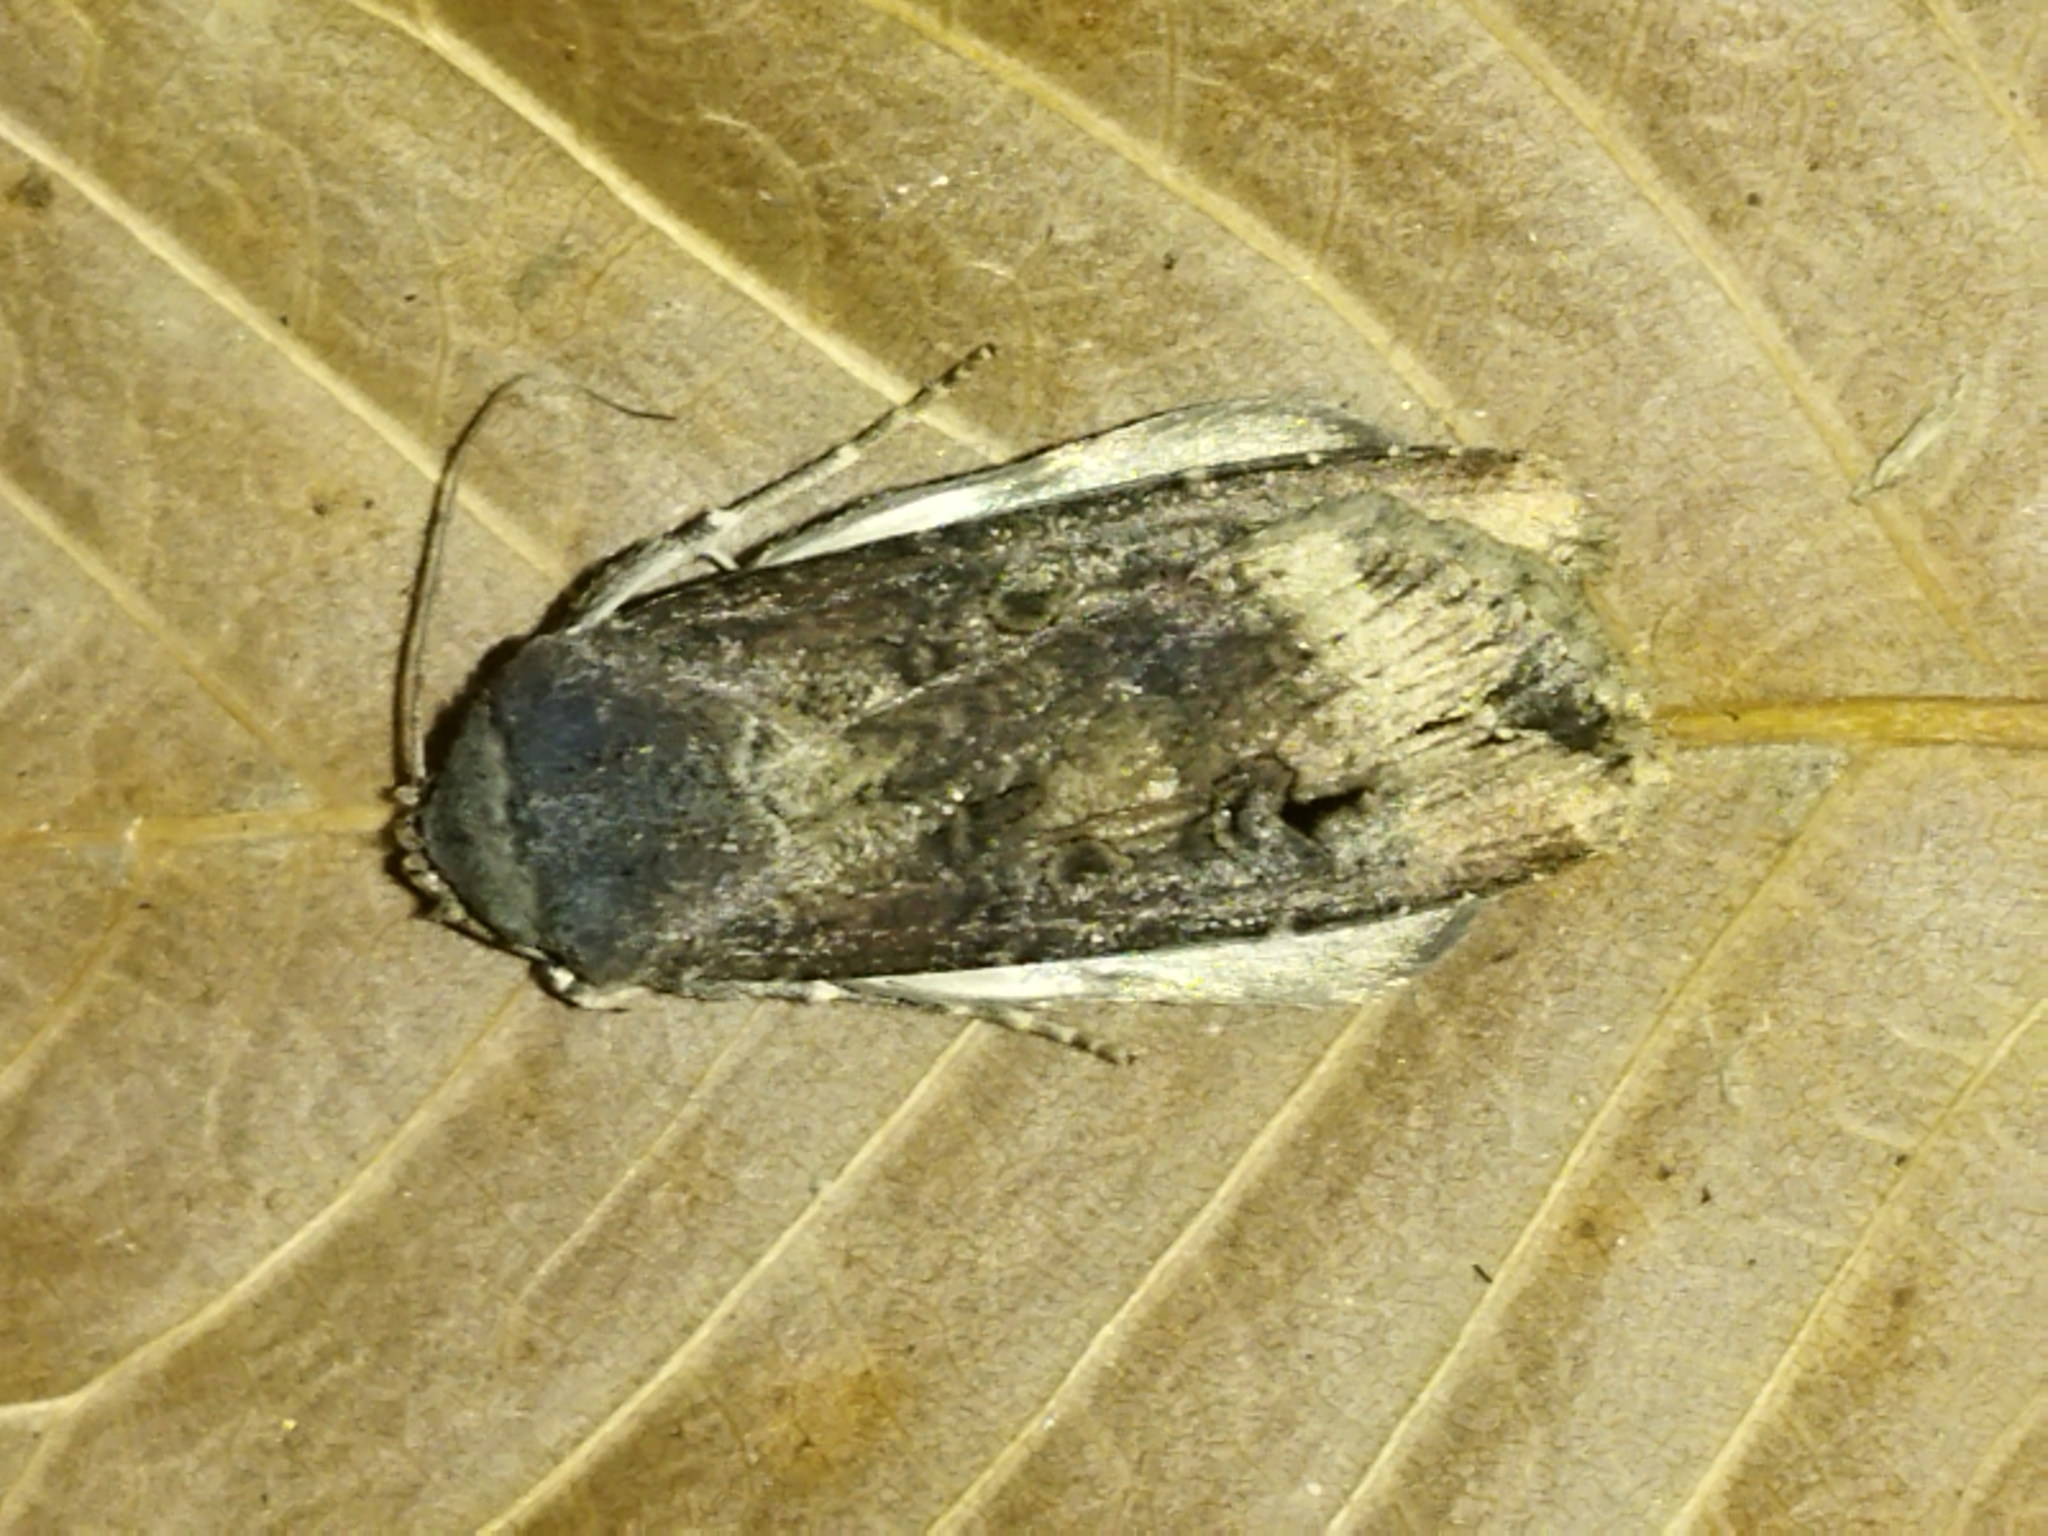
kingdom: Animalia
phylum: Arthropoda
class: Insecta
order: Lepidoptera
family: Noctuidae
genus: Agrotis
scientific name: Agrotis ipsilon
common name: Dark sword-grass
